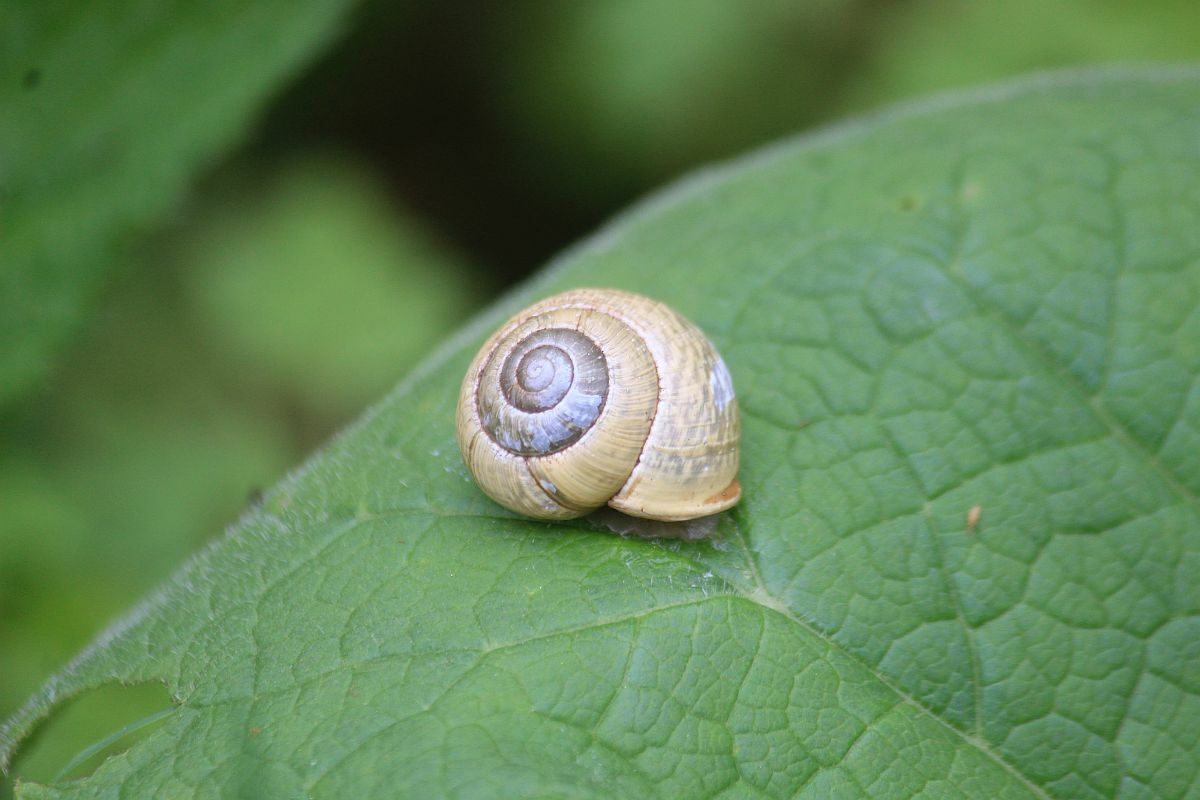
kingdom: Animalia
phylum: Mollusca
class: Gastropoda
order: Stylommatophora
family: Helicidae
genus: Arianta
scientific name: Arianta arbustorum
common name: Copse snail
